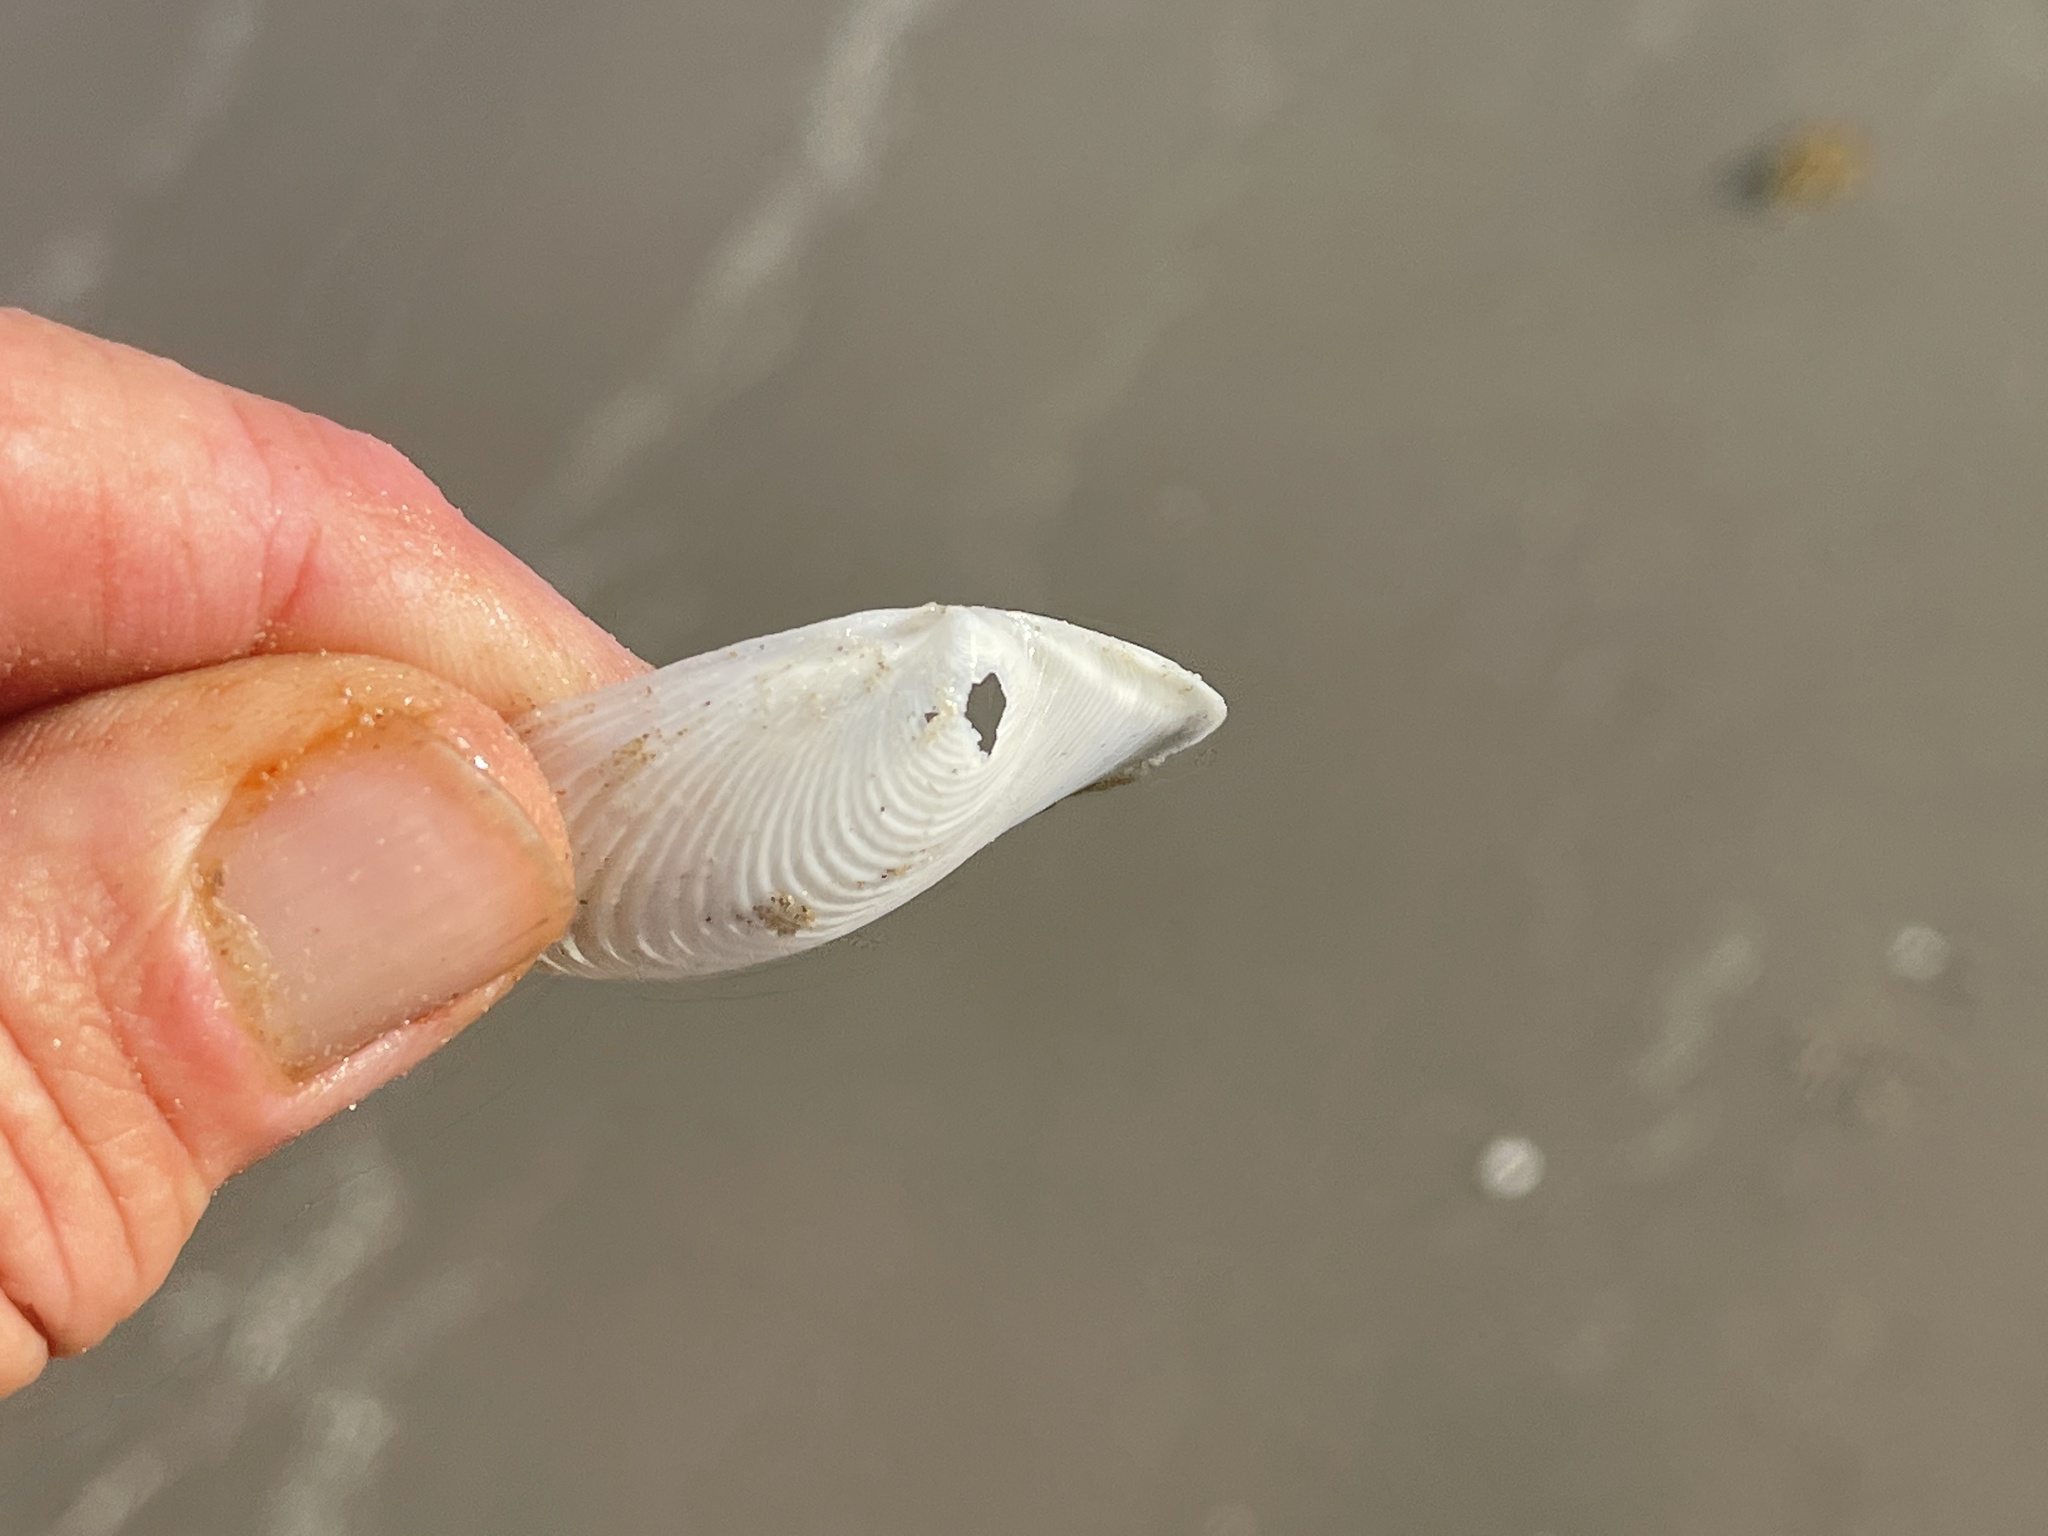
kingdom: Animalia
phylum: Mollusca
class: Bivalvia
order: Venerida
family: Anatinellidae
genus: Raeta
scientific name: Raeta plicatella
